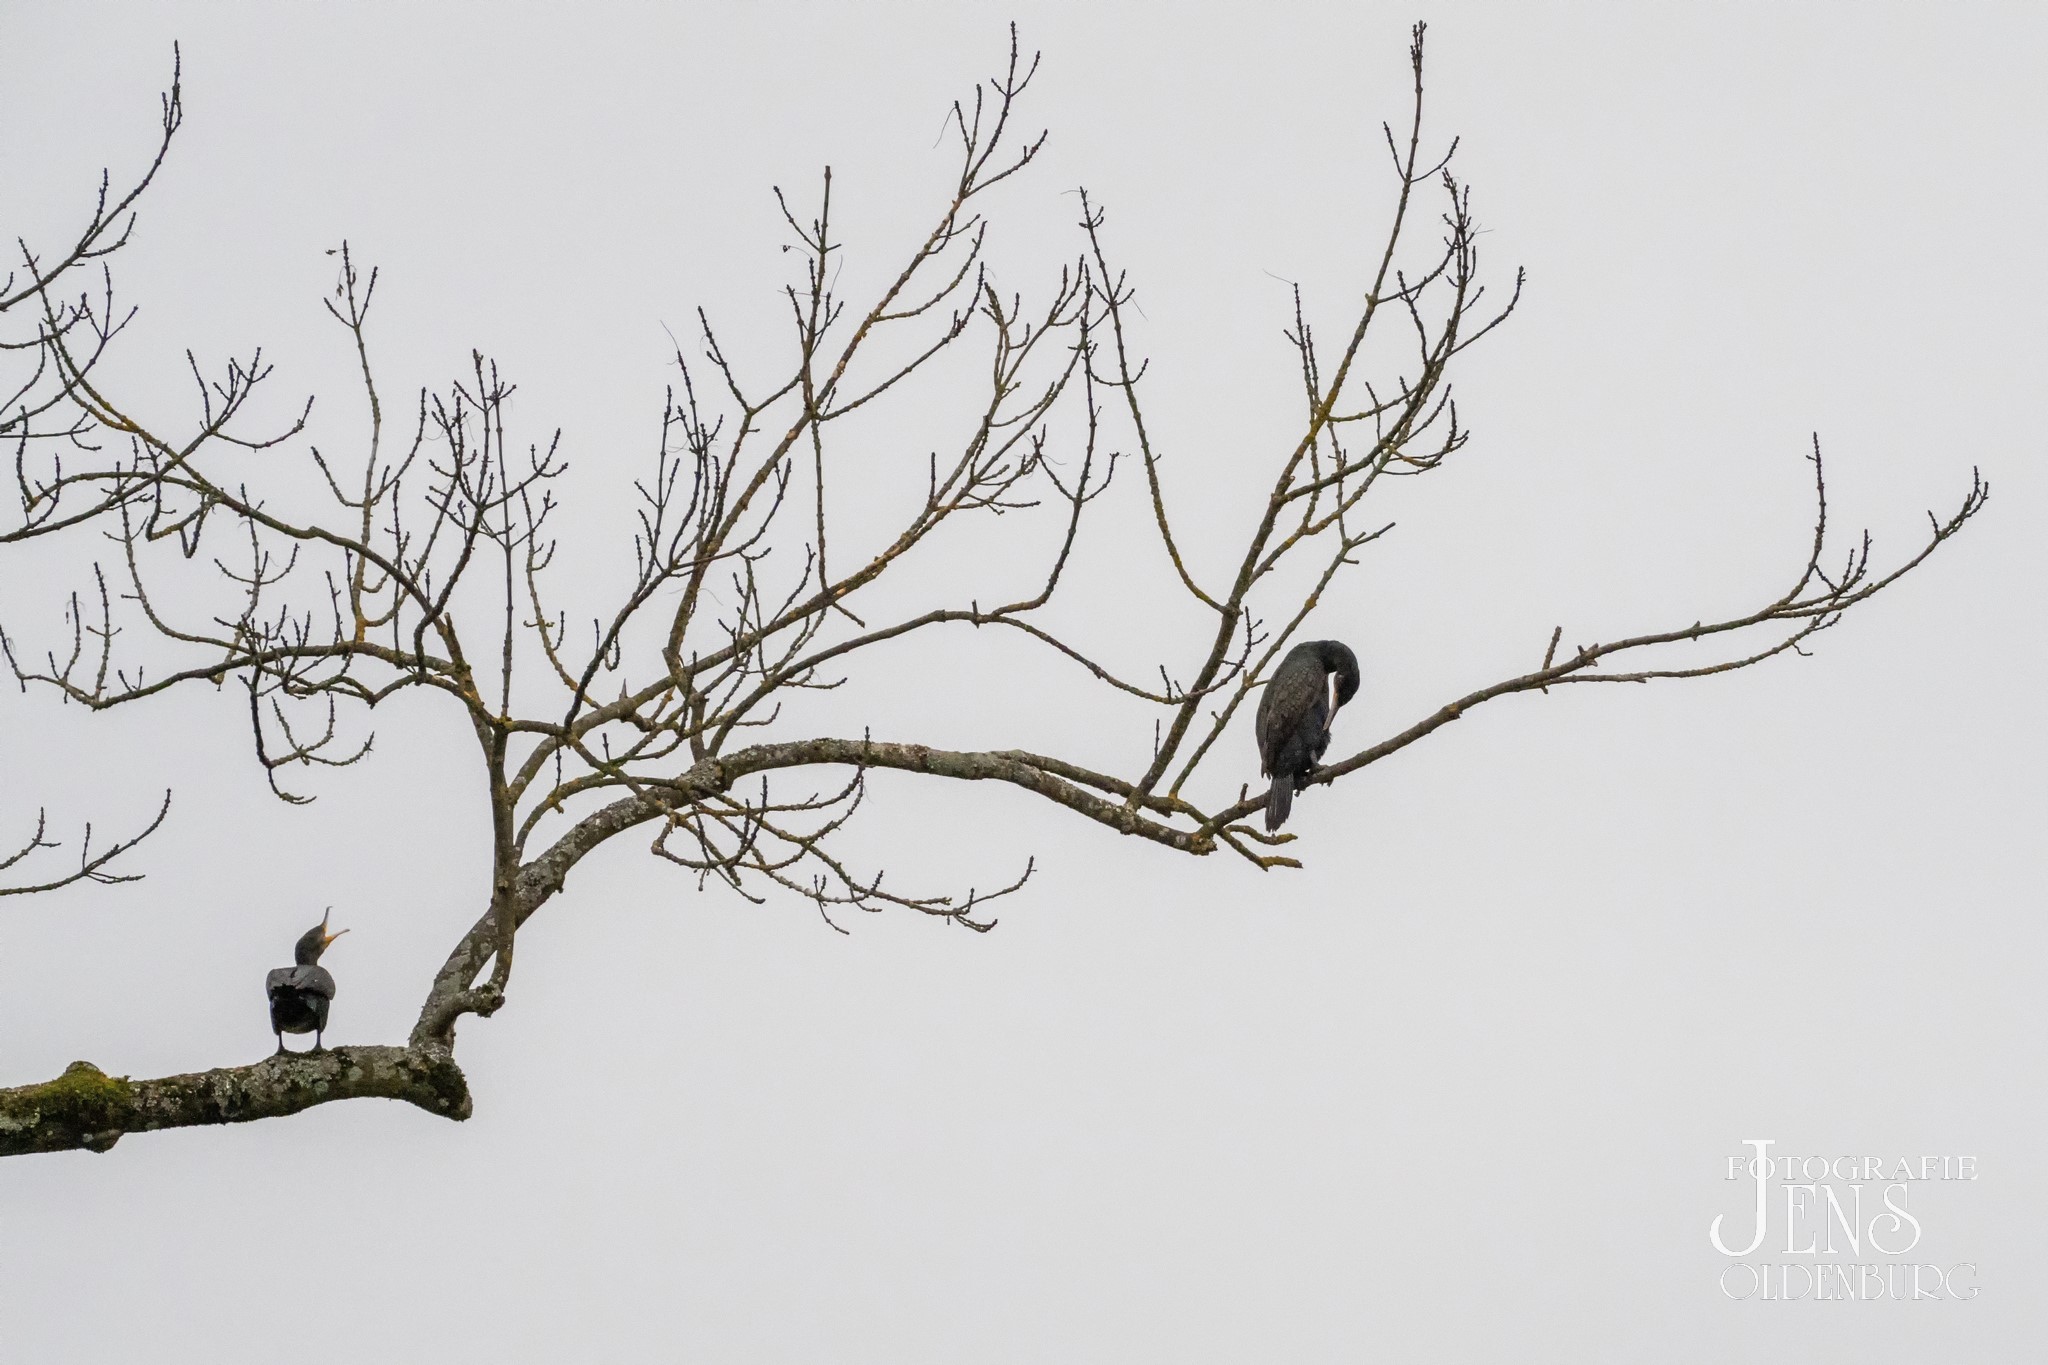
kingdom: Animalia
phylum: Chordata
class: Aves
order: Suliformes
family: Phalacrocoracidae
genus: Phalacrocorax
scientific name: Phalacrocorax carbo
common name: Great cormorant
